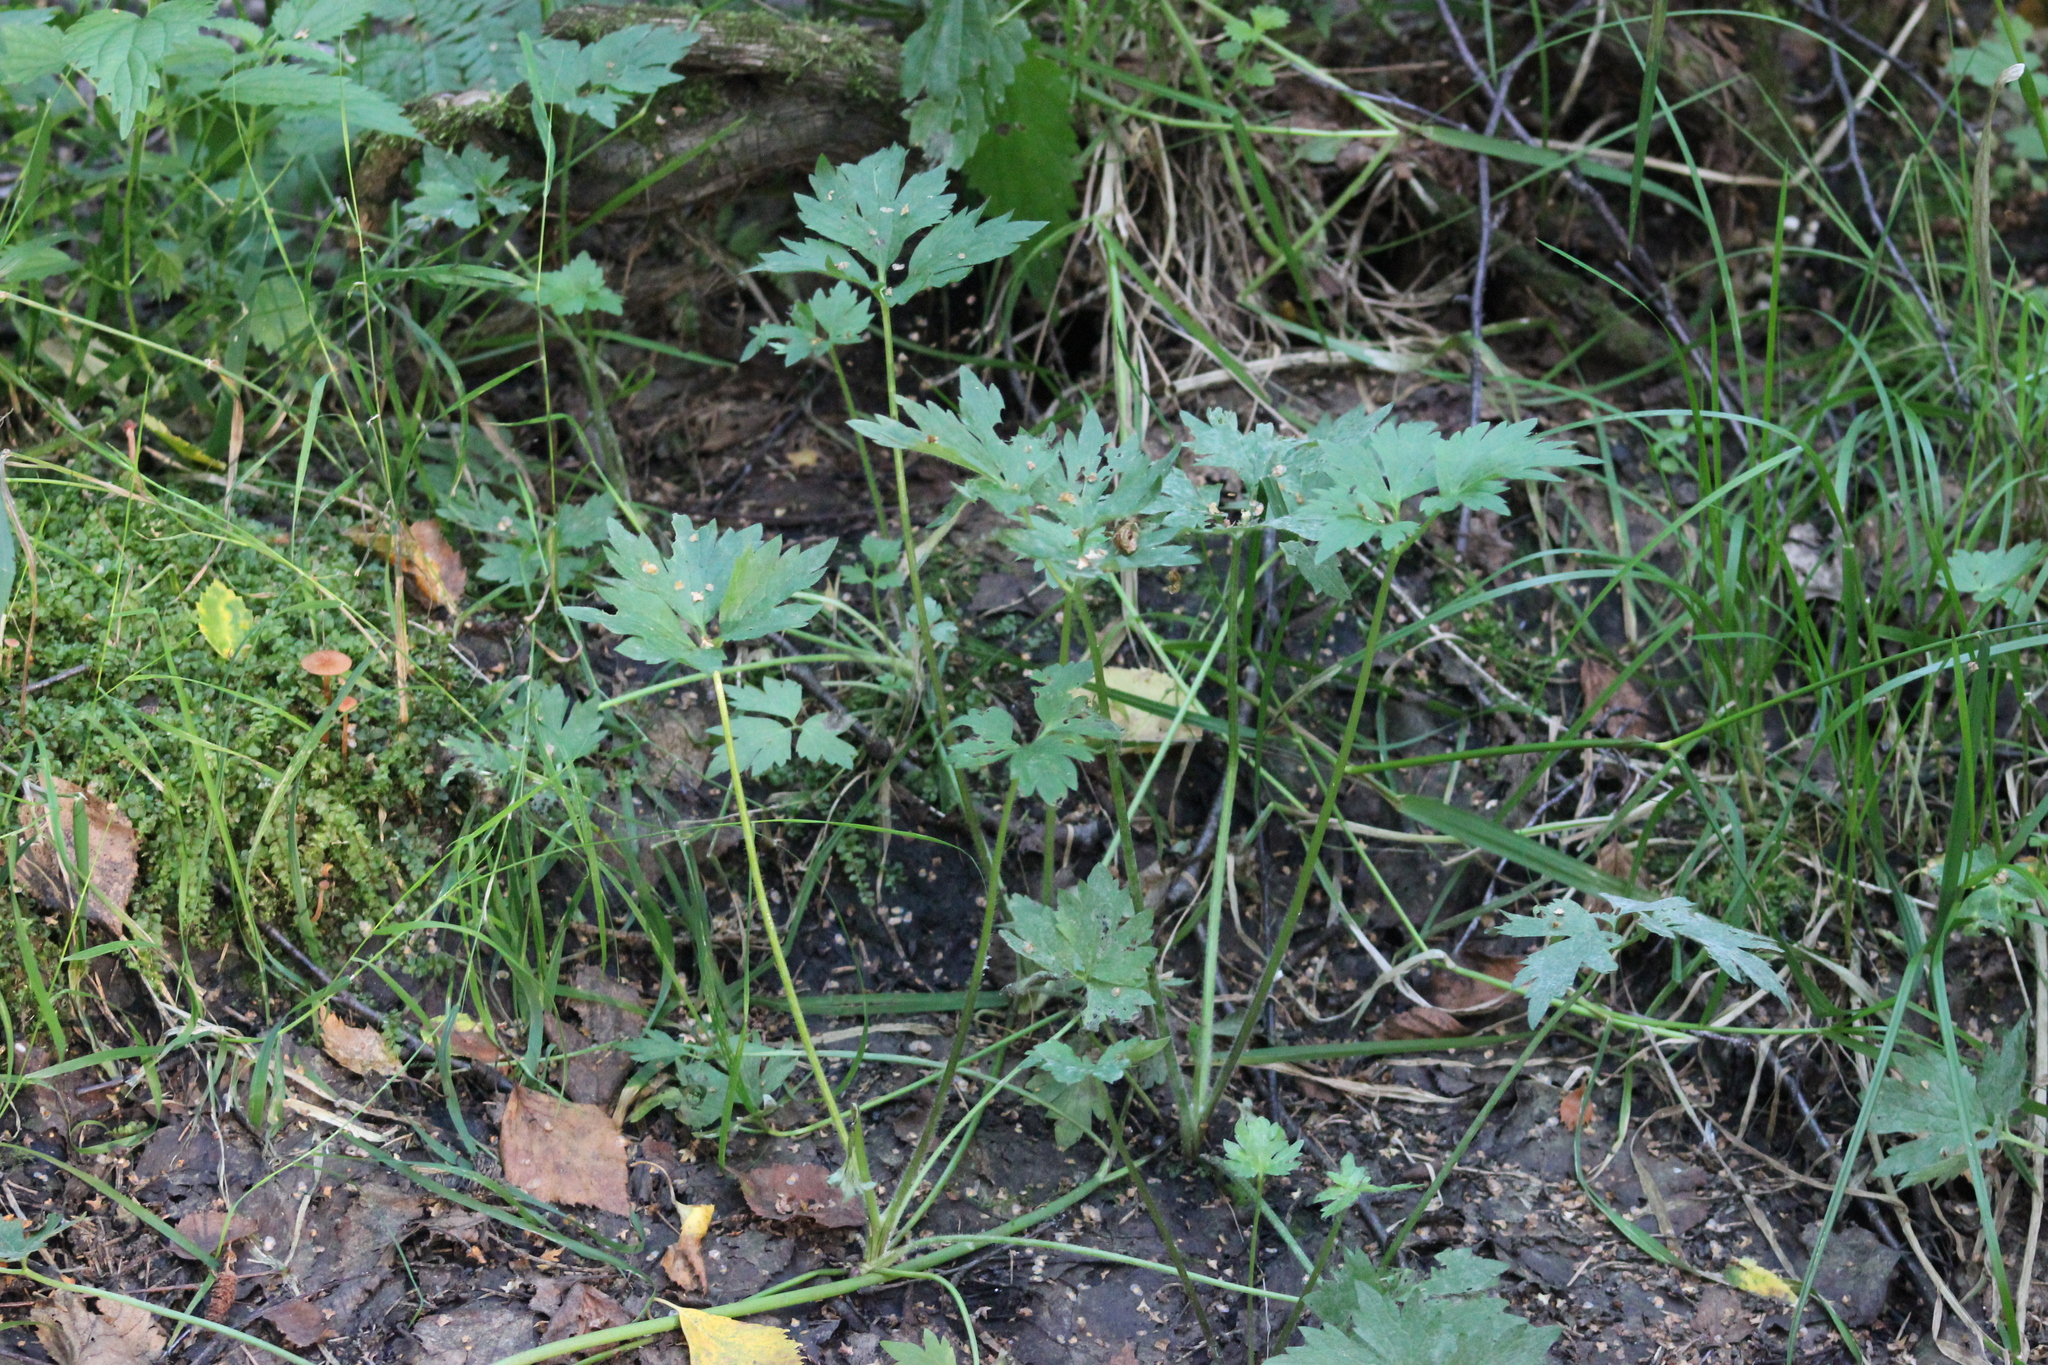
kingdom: Plantae
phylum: Tracheophyta
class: Magnoliopsida
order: Ranunculales
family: Ranunculaceae
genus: Ranunculus
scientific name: Ranunculus repens
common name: Creeping buttercup
